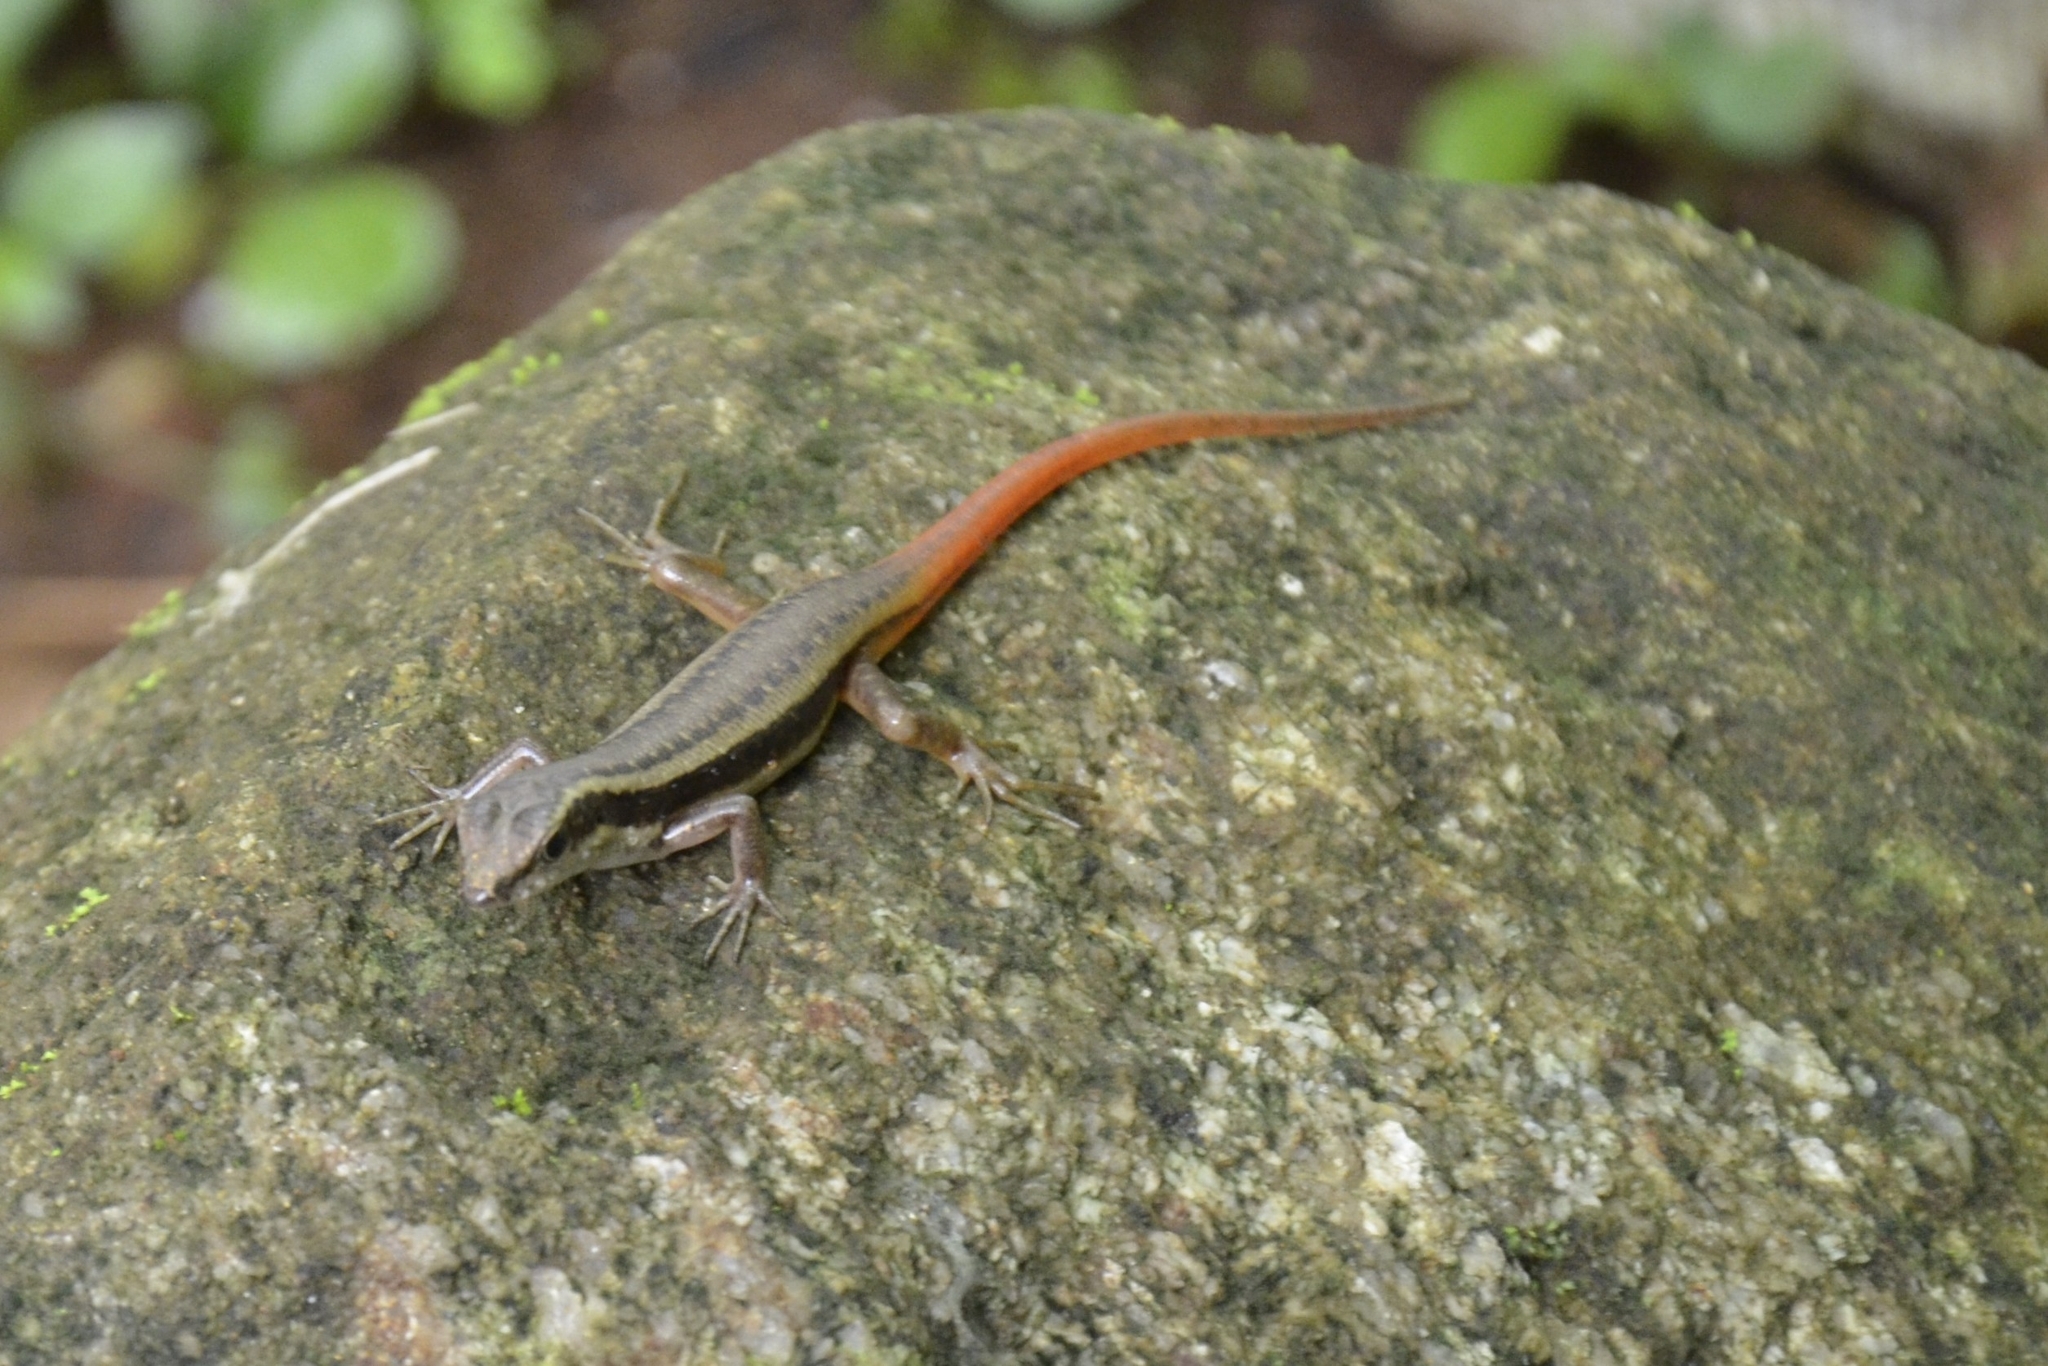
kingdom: Animalia
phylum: Chordata
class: Squamata
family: Scincidae
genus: Sphenomorphus
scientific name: Sphenomorphus dussumieri
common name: Dussumier's forest skink
